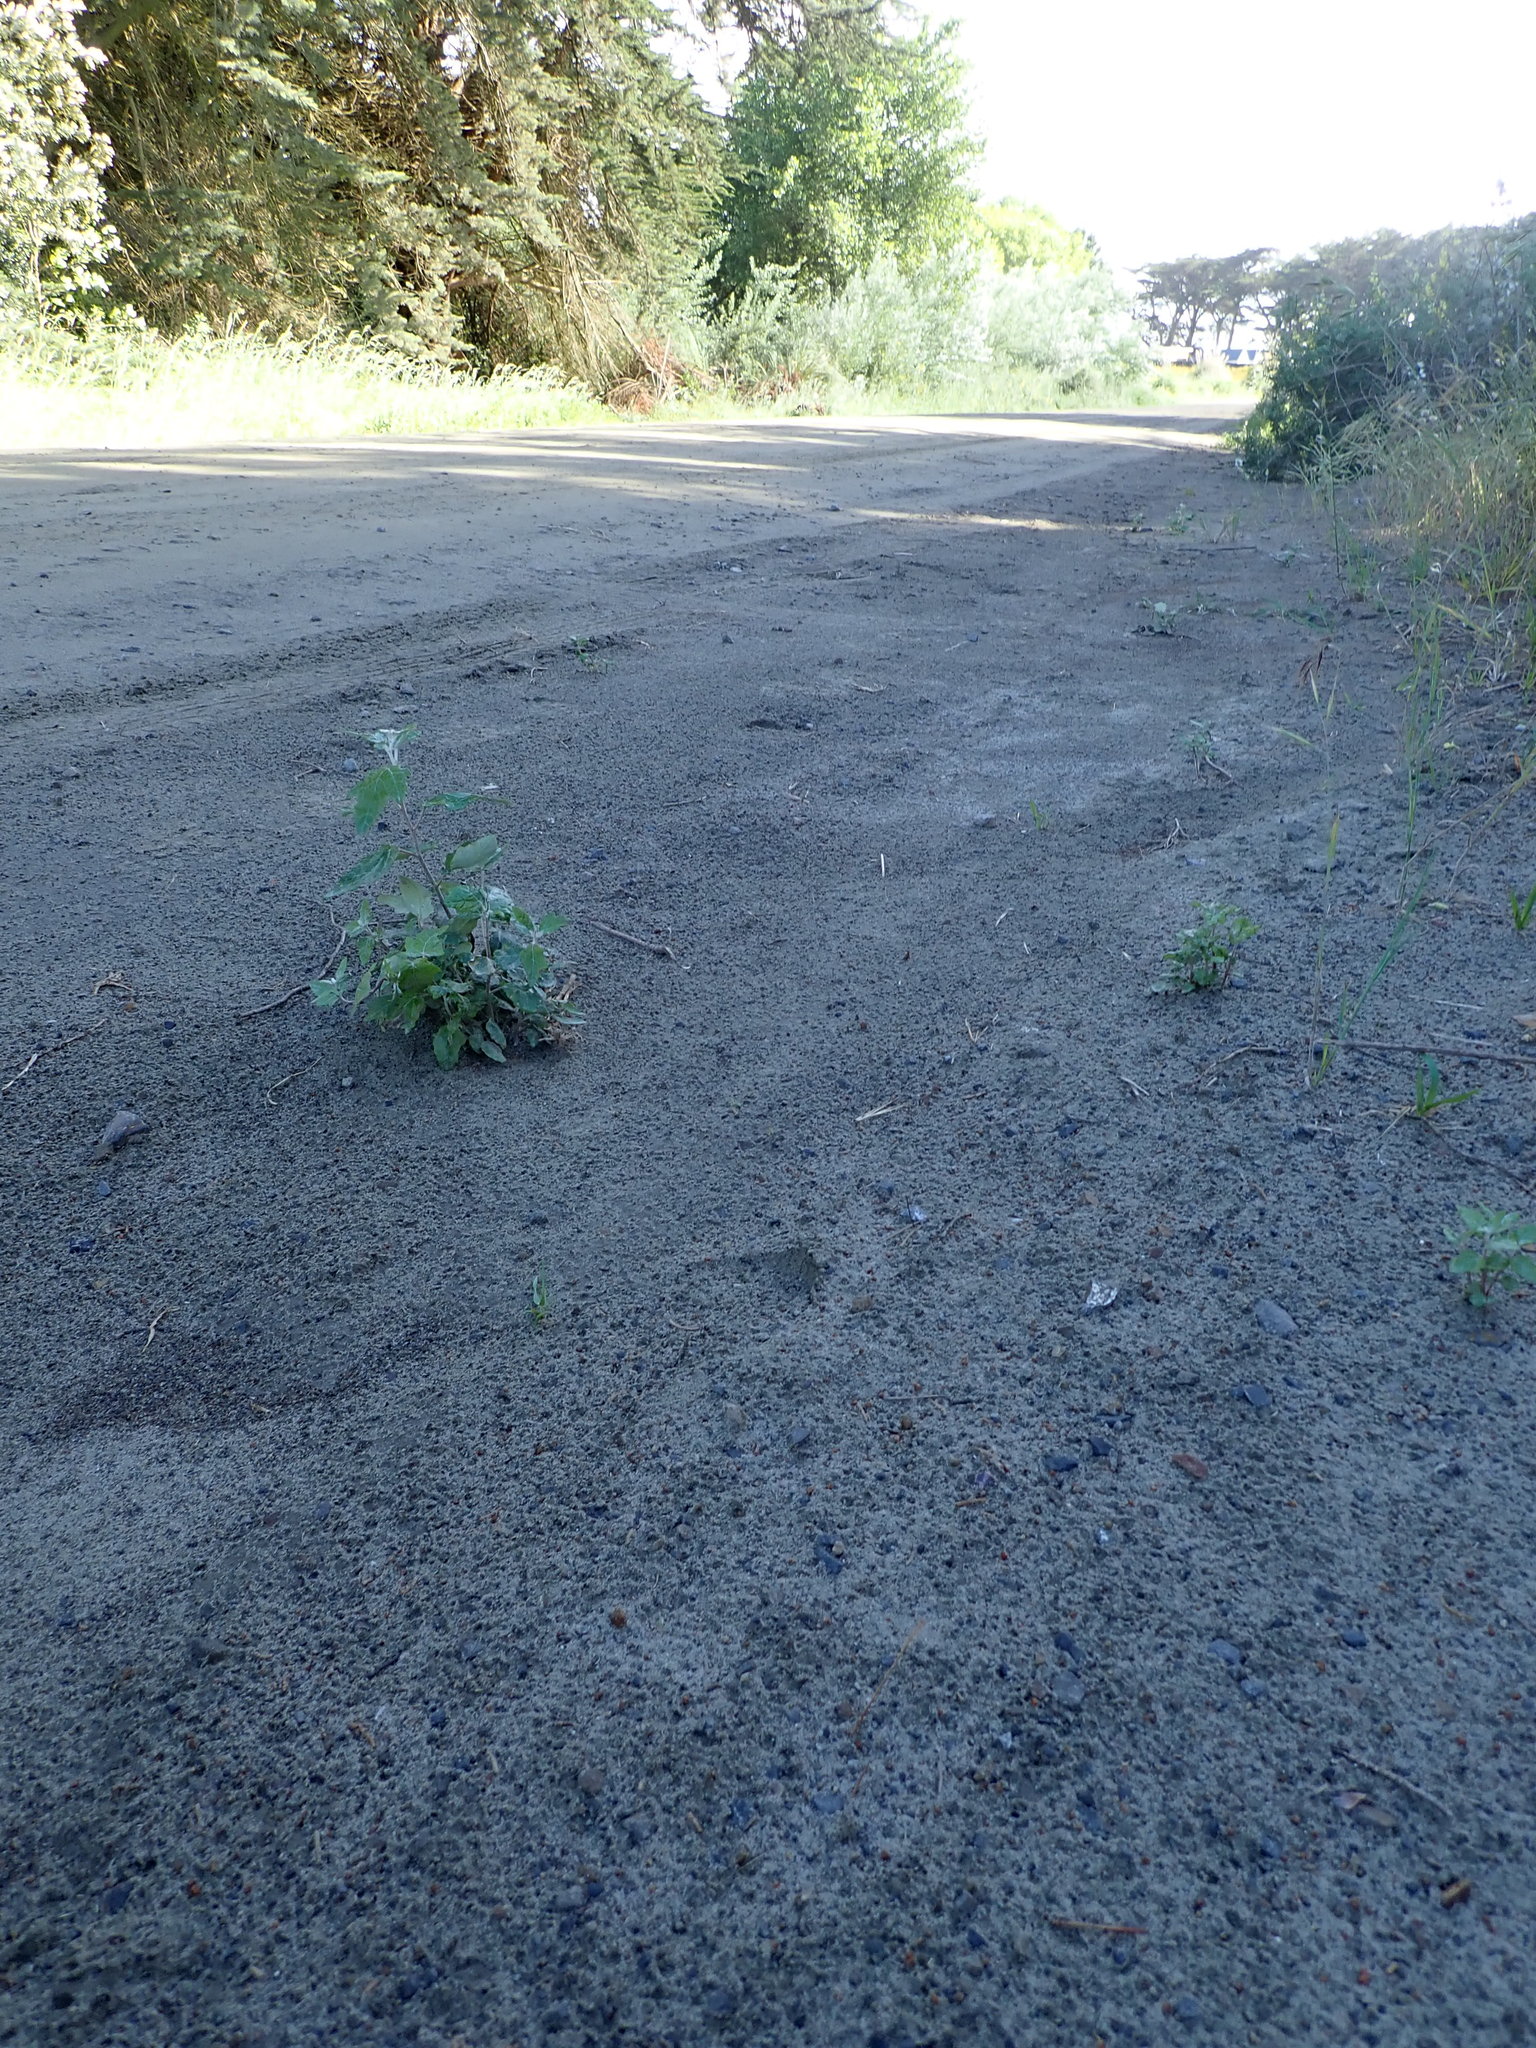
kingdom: Plantae
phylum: Tracheophyta
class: Magnoliopsida
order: Malpighiales
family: Salicaceae
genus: Populus
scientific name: Populus alba
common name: White poplar
